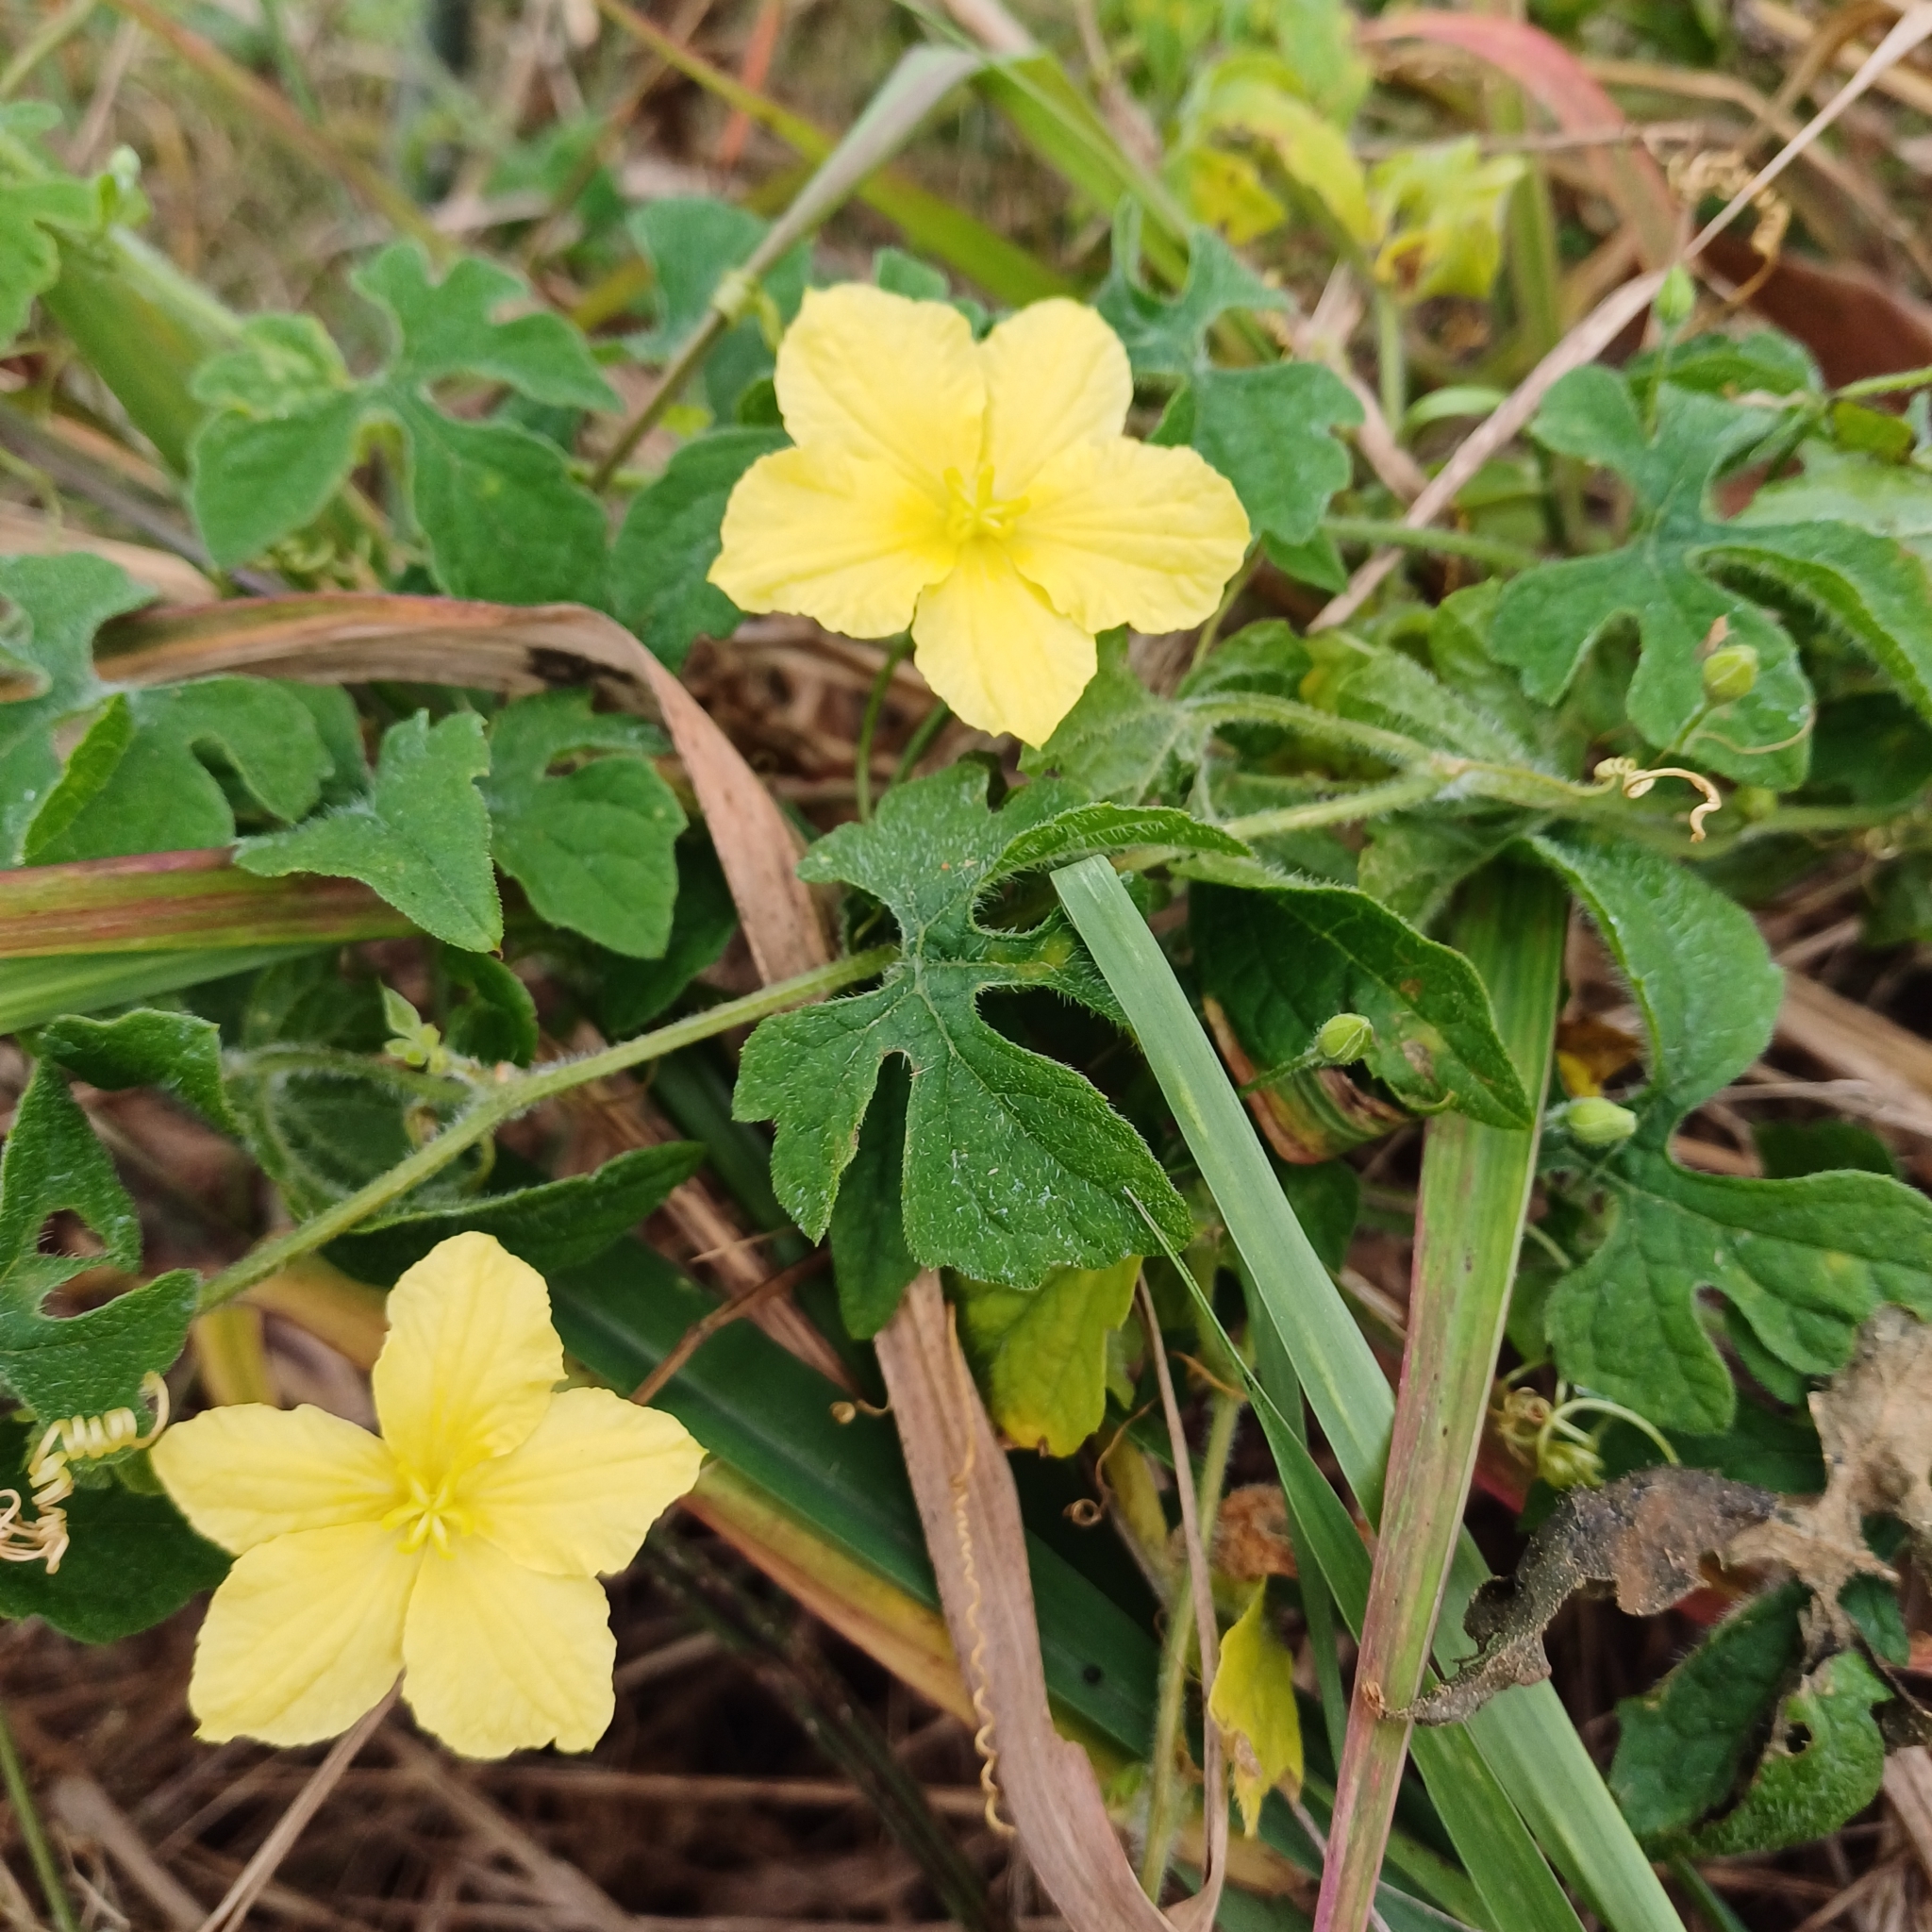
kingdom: Plantae
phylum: Tracheophyta
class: Magnoliopsida
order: Cucurbitales
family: Cucurbitaceae
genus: Momordica
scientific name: Momordica charantia
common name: Balsampear
